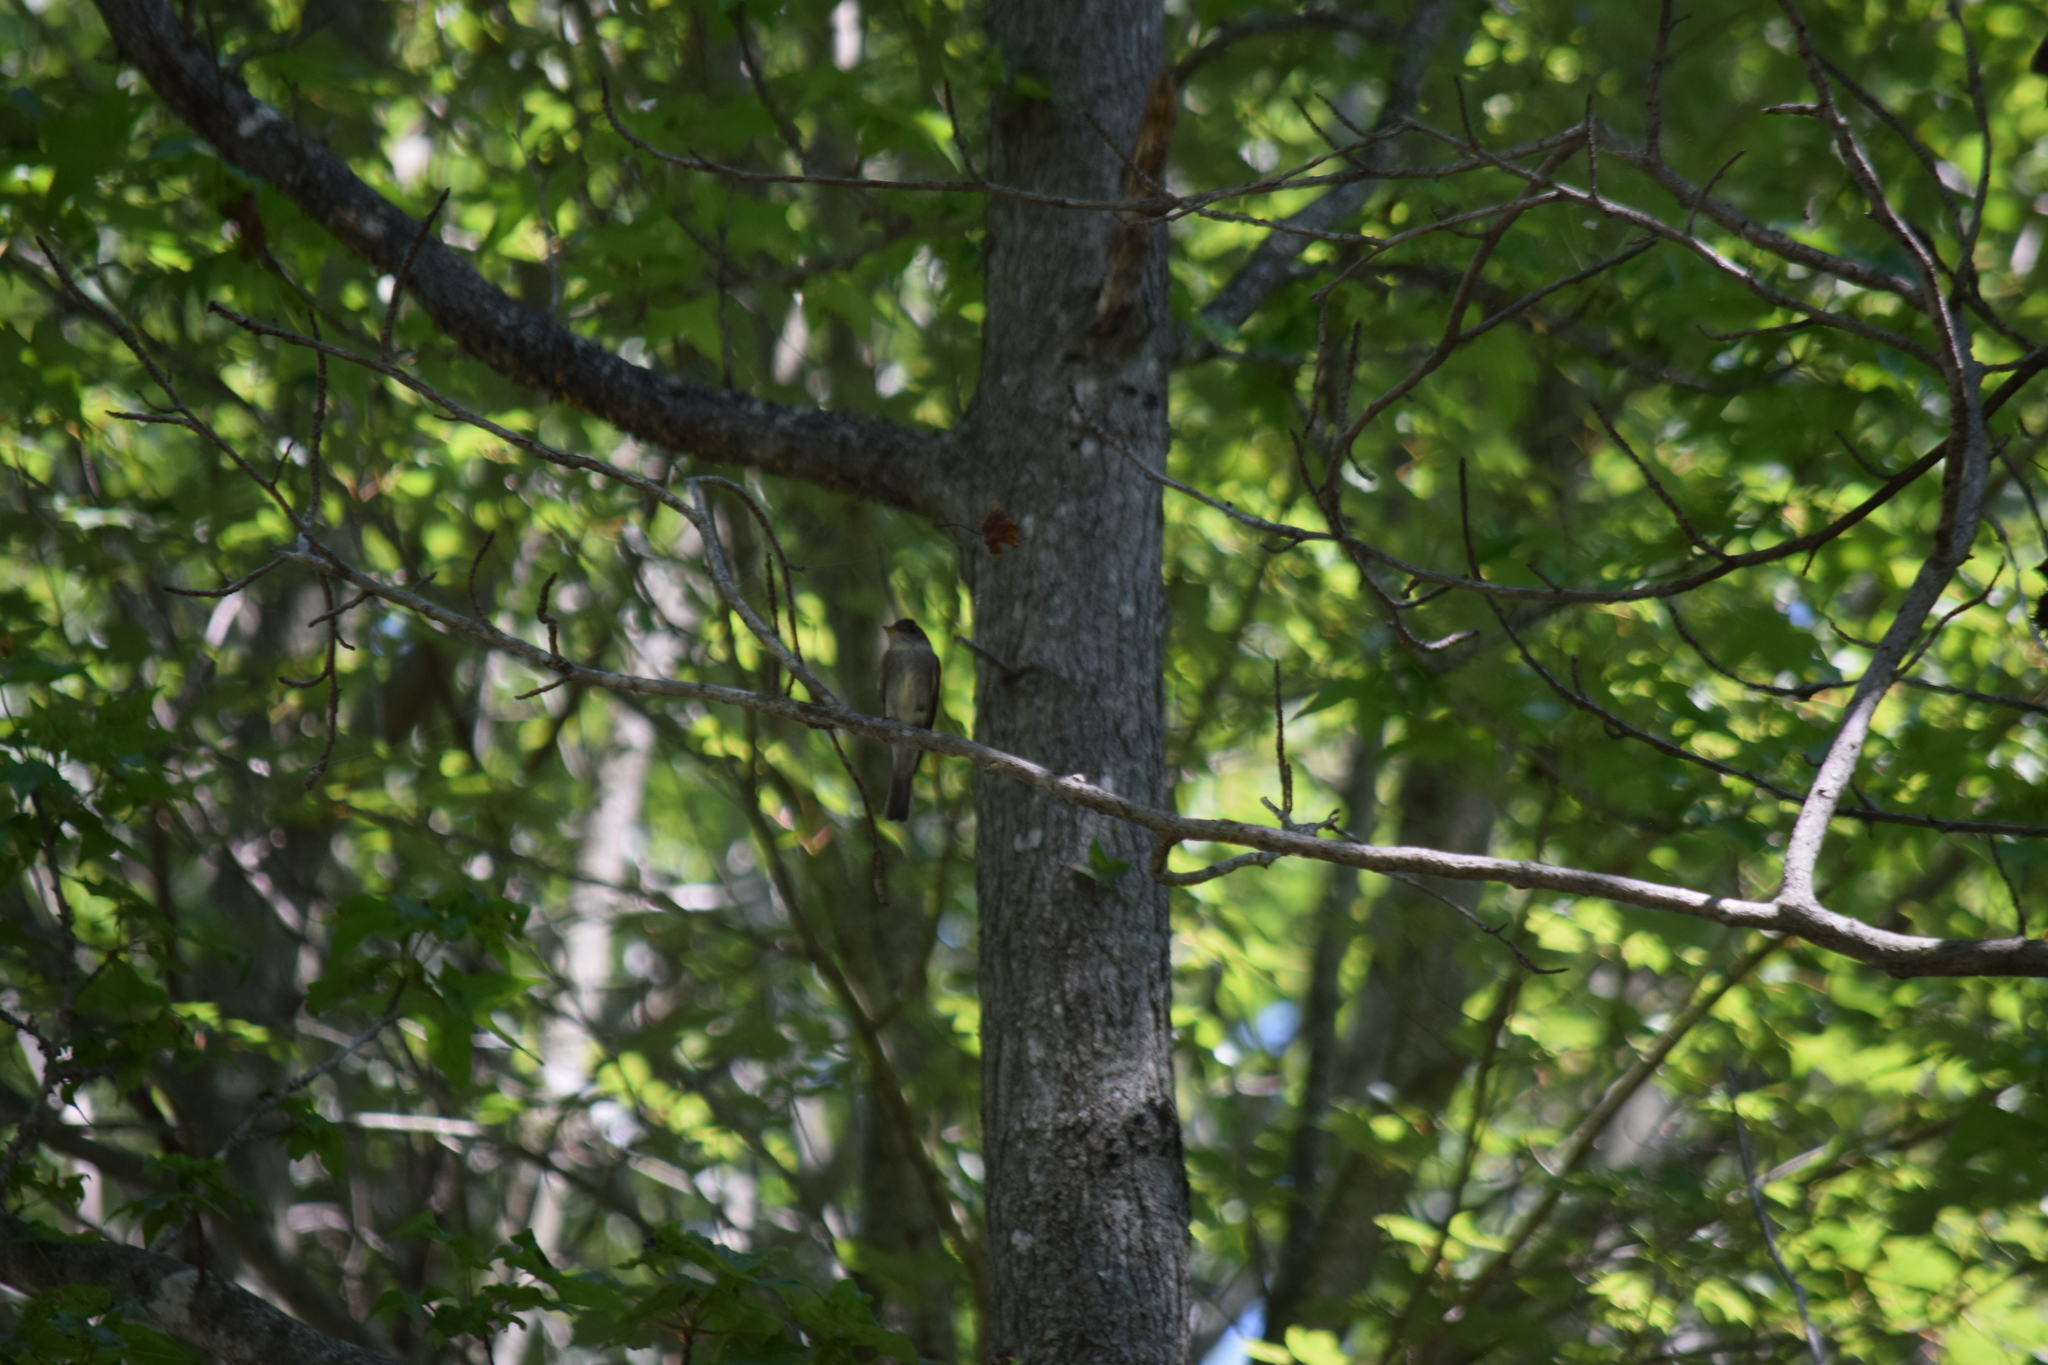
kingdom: Animalia
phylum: Chordata
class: Aves
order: Passeriformes
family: Tyrannidae
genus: Contopus
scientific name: Contopus virens
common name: Eastern wood-pewee
